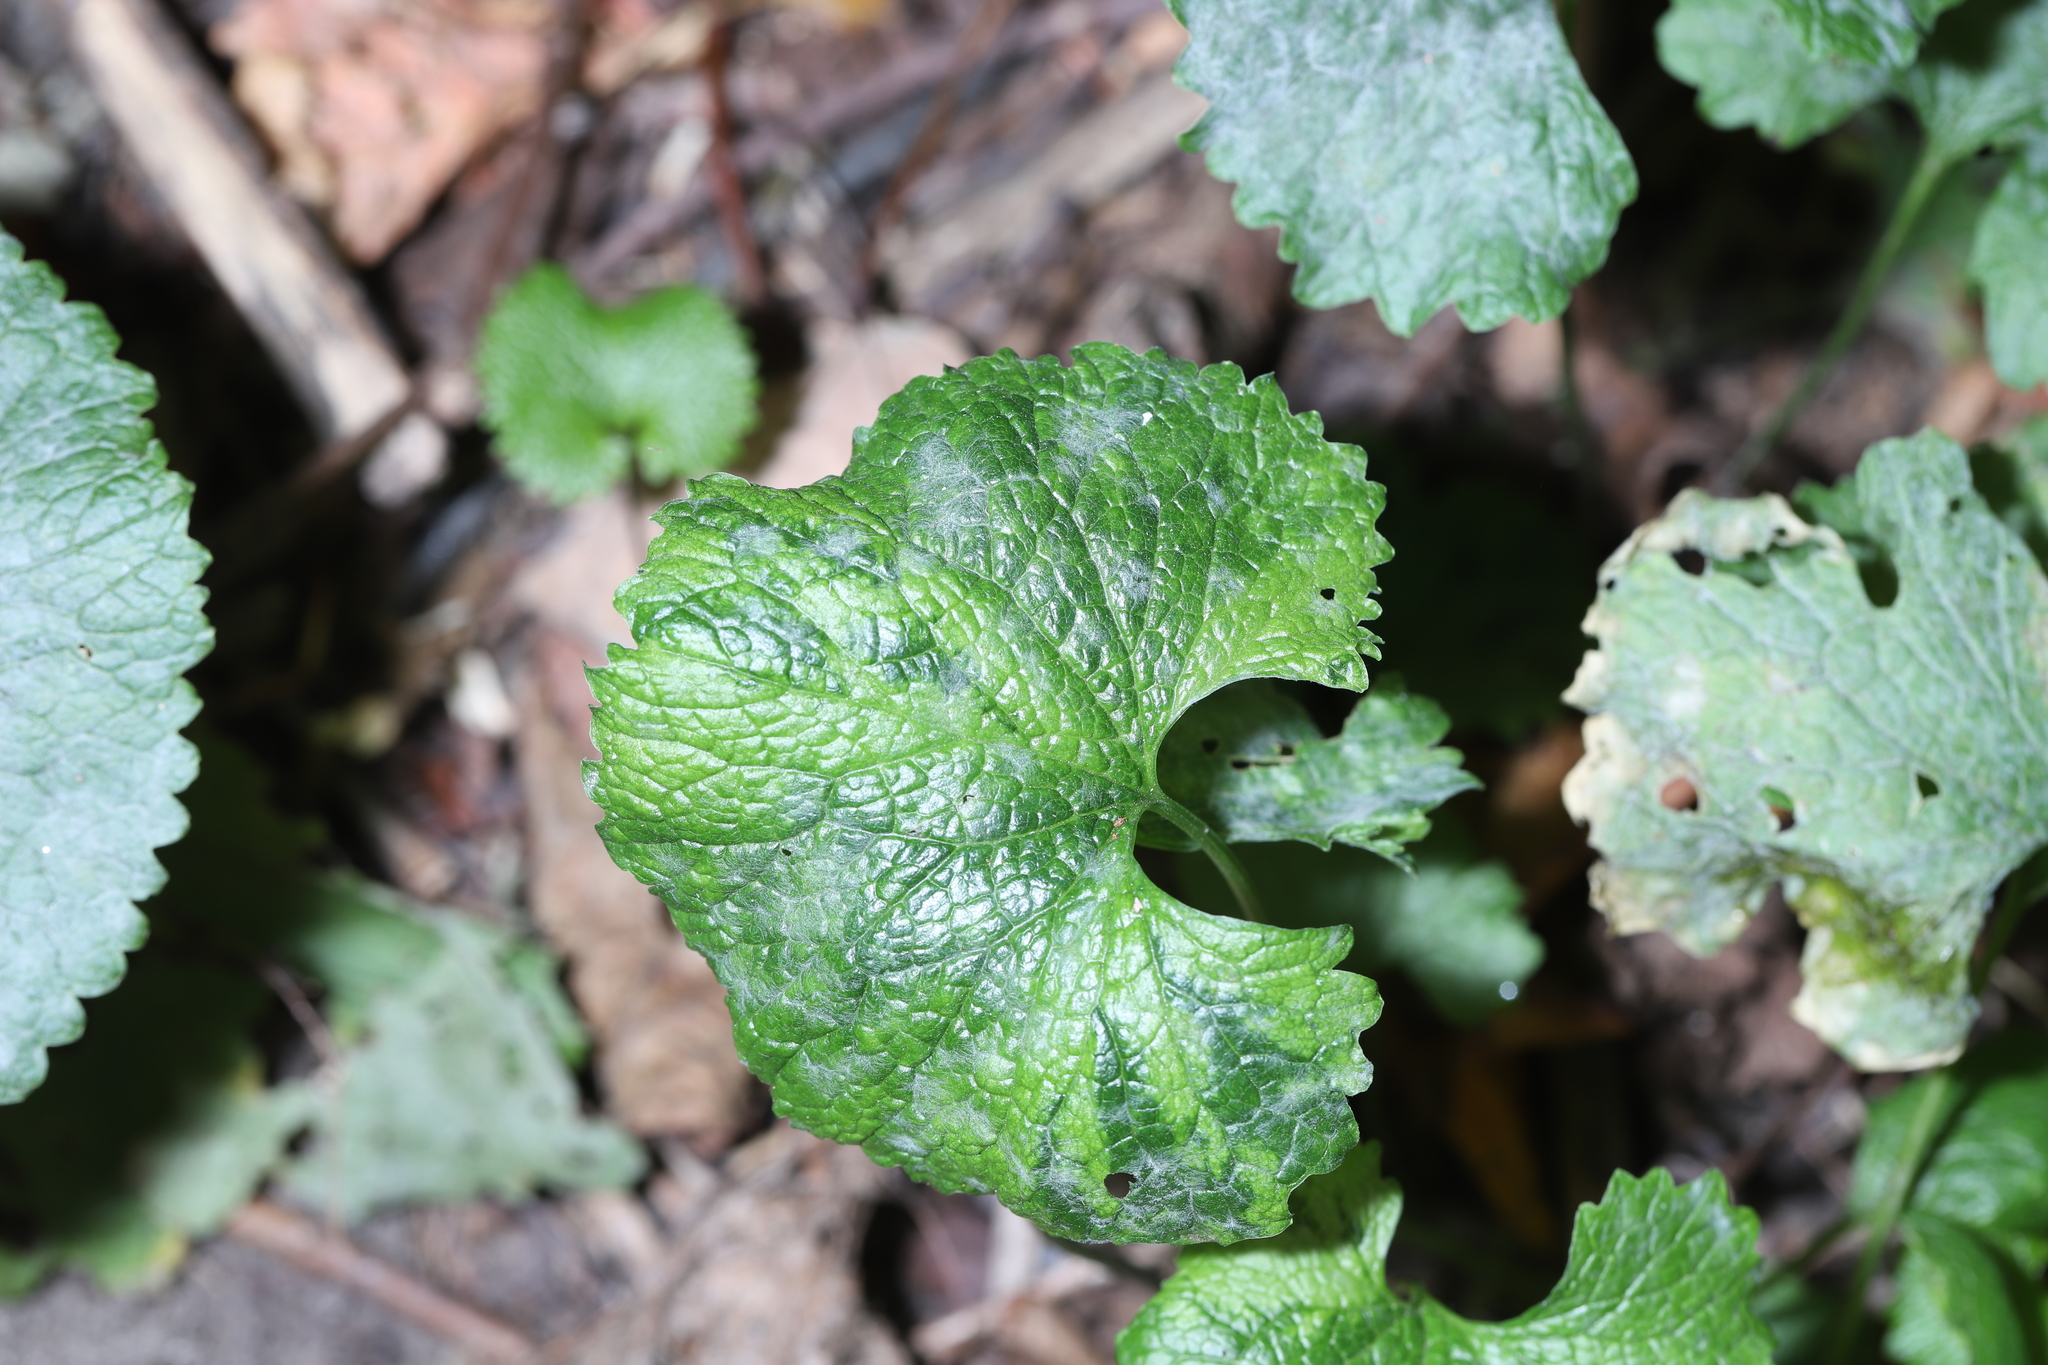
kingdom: Plantae
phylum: Tracheophyta
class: Magnoliopsida
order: Brassicales
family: Brassicaceae
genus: Alliaria
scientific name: Alliaria petiolata
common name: Garlic mustard
